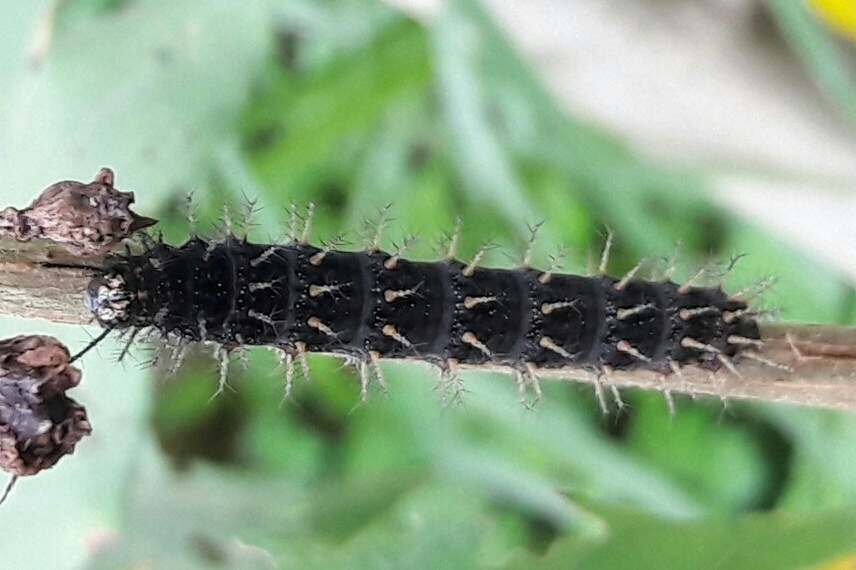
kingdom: Animalia
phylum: Arthropoda
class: Insecta
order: Lepidoptera
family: Nymphalidae
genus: Anartia
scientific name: Anartia jatrophae
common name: White peacock
